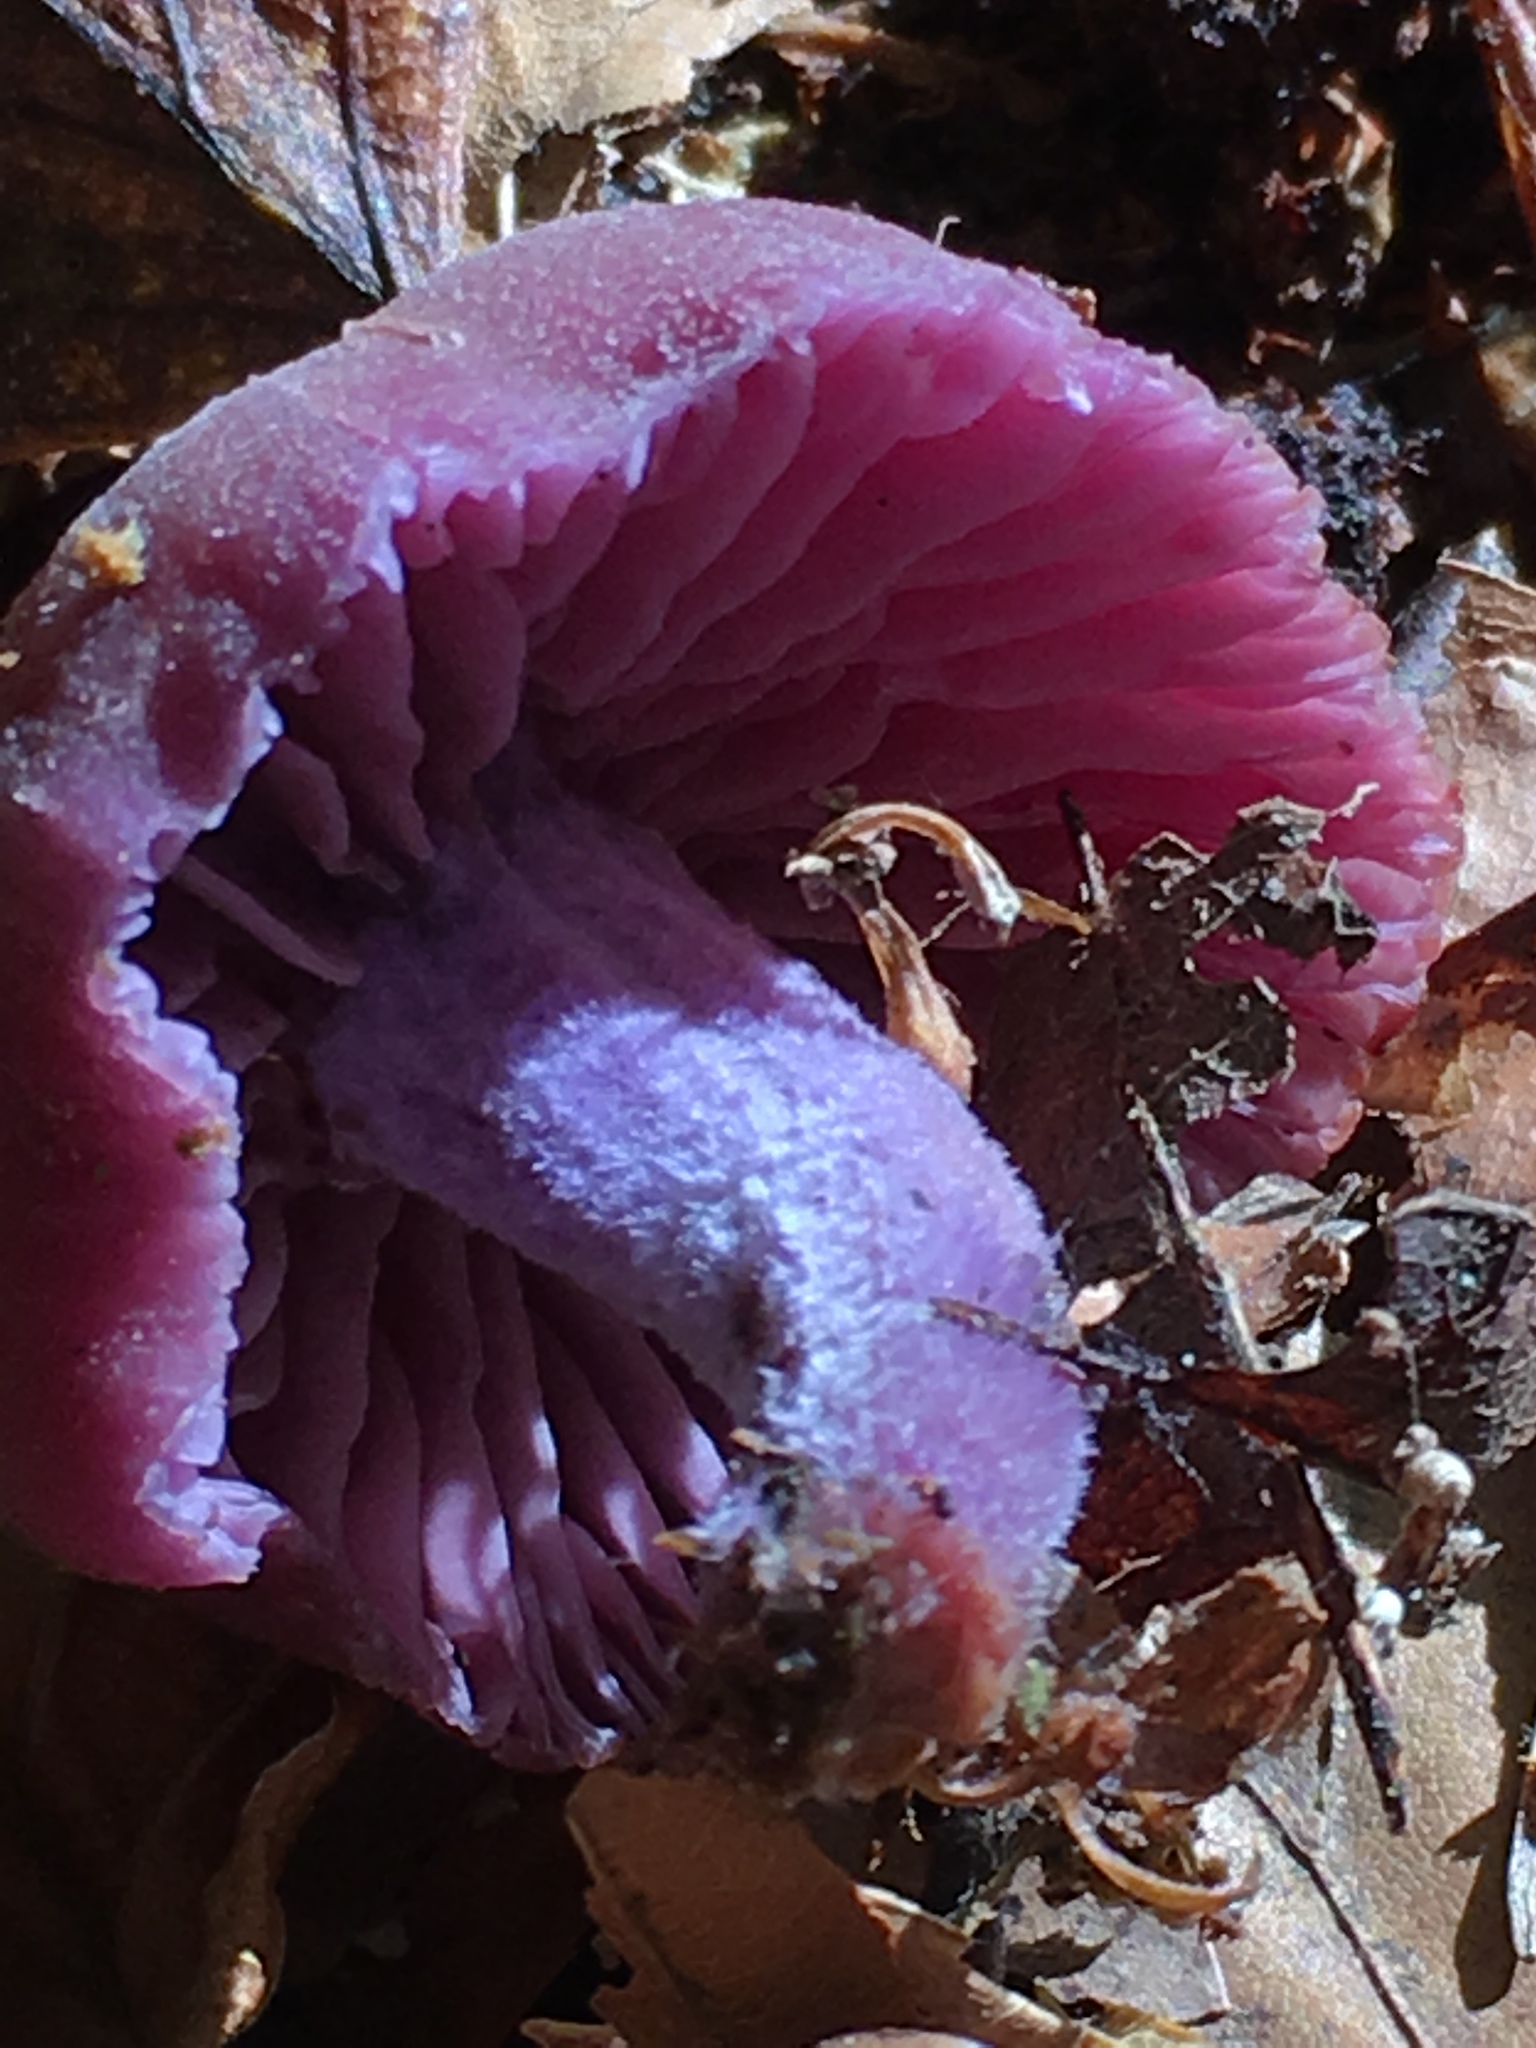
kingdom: Fungi
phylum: Basidiomycota
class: Agaricomycetes
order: Agaricales
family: Hydnangiaceae
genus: Laccaria
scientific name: Laccaria amethystina
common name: Amethyst deceiver
